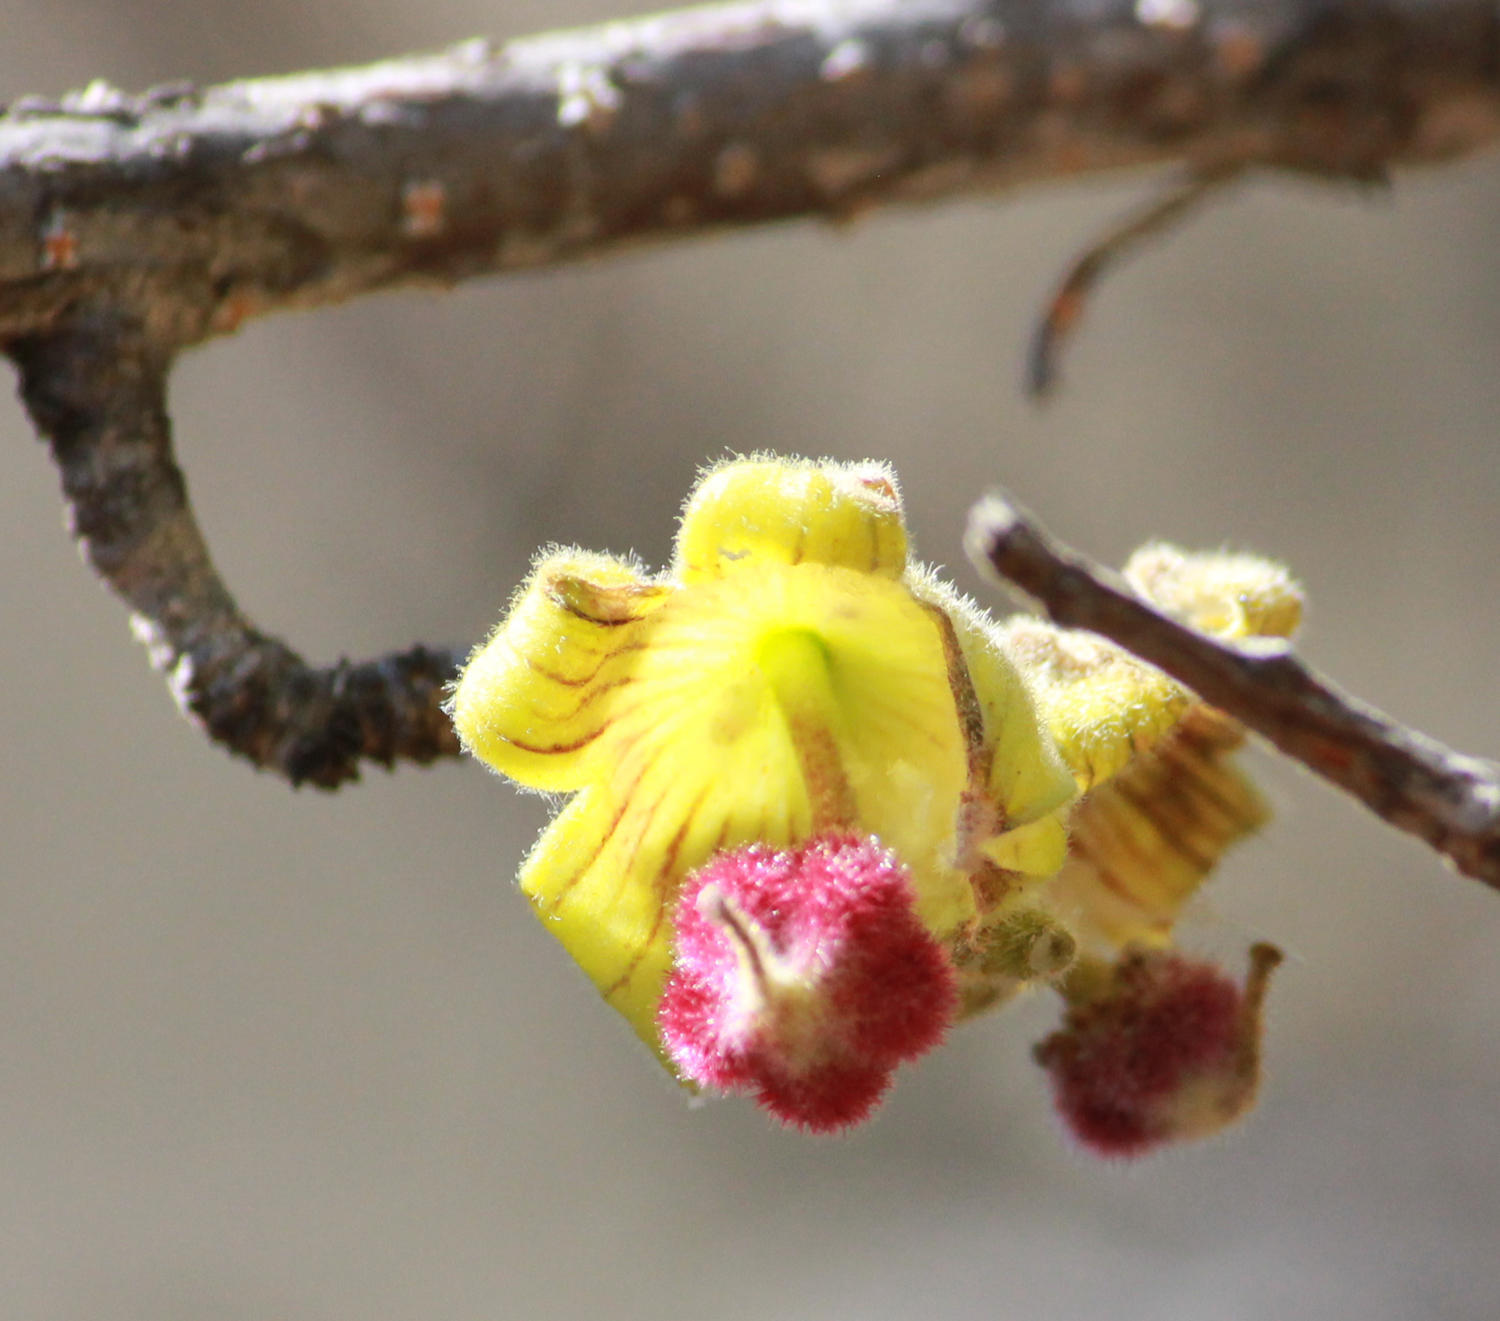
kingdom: Plantae
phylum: Tracheophyta
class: Magnoliopsida
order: Malvales
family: Malvaceae
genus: Sterculia
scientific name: Sterculia rogersii
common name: Star-chestnut
